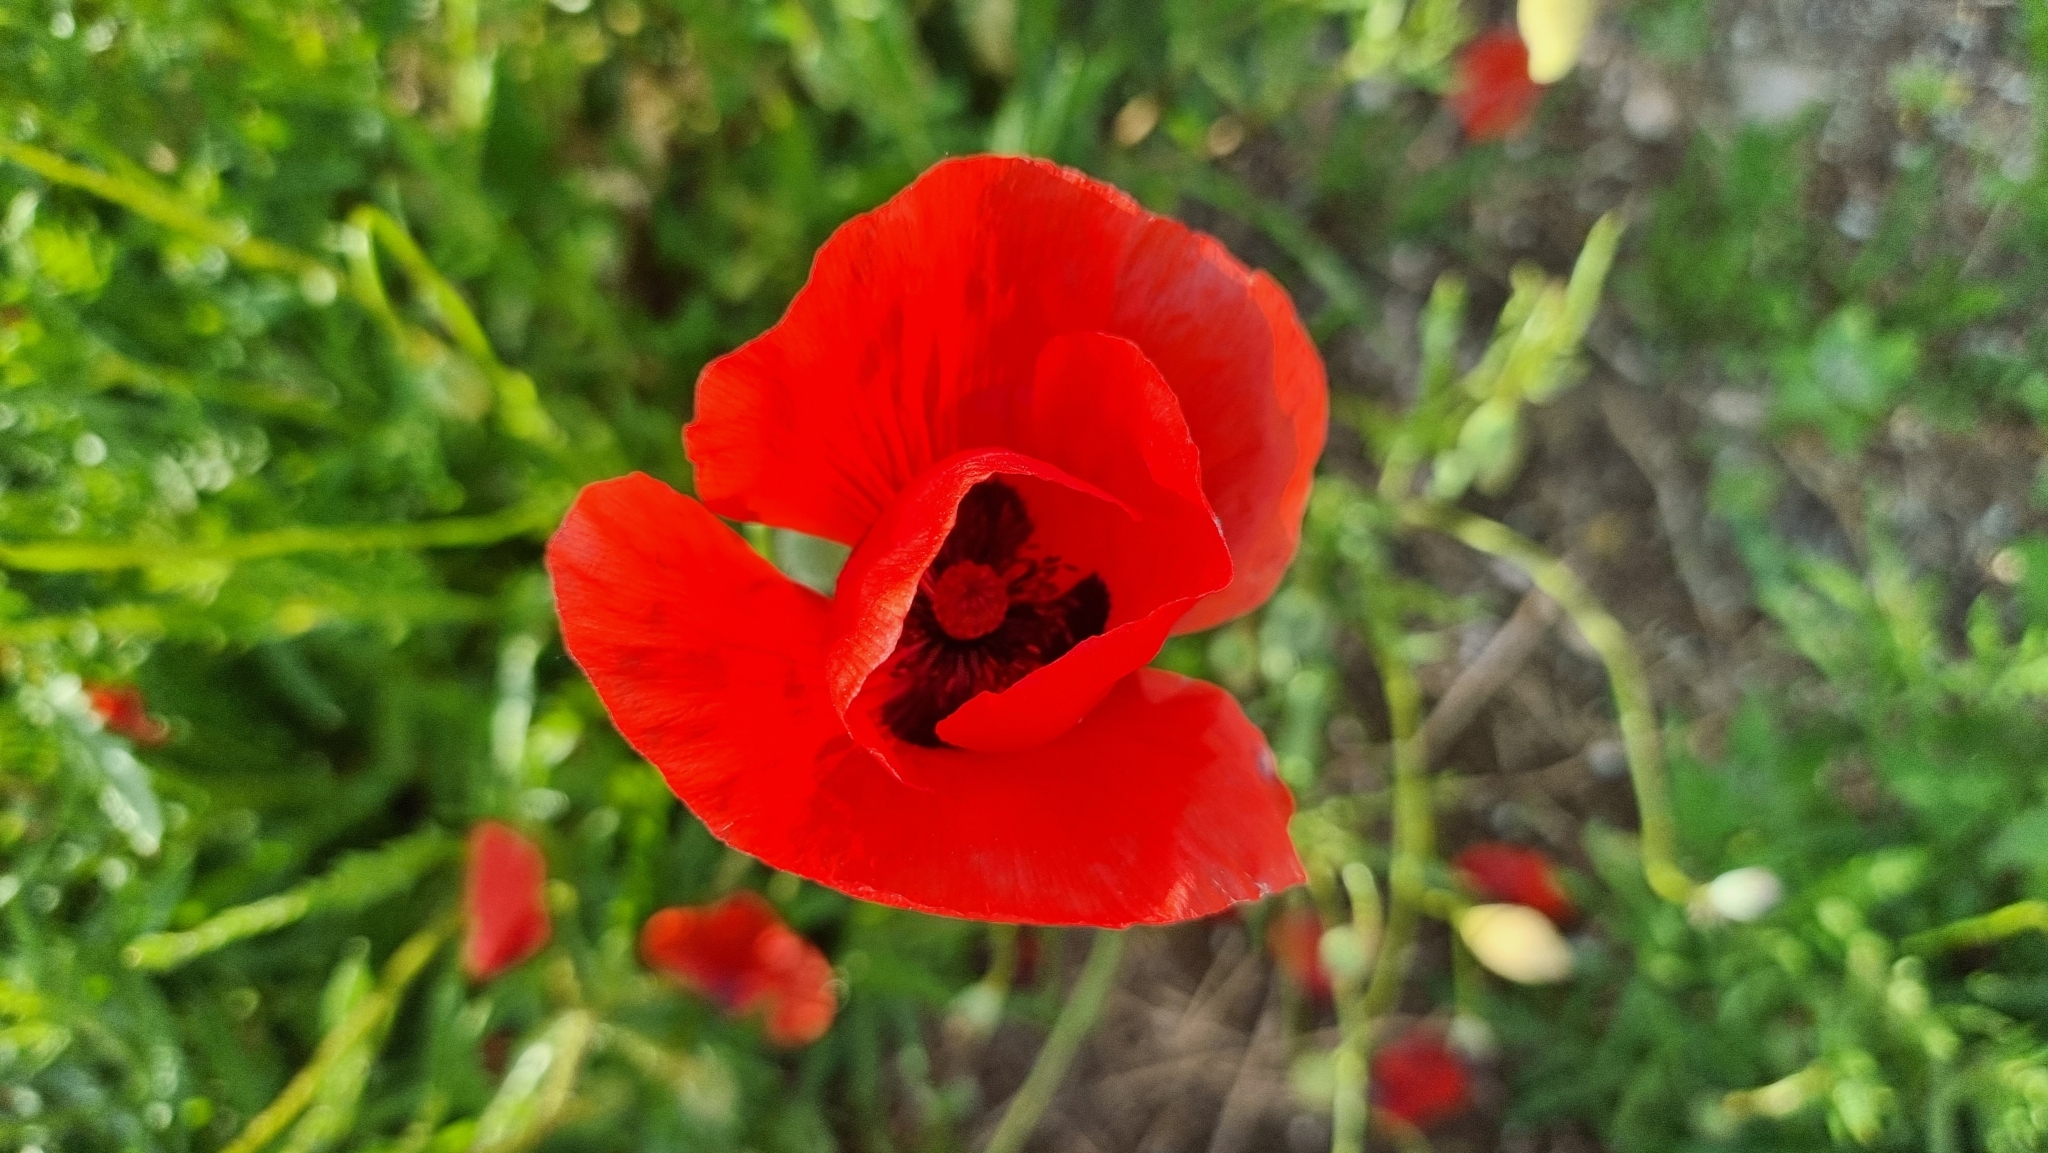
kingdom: Plantae
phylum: Tracheophyta
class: Magnoliopsida
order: Ranunculales
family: Papaveraceae
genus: Papaver
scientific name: Papaver rhoeas
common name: Corn poppy
